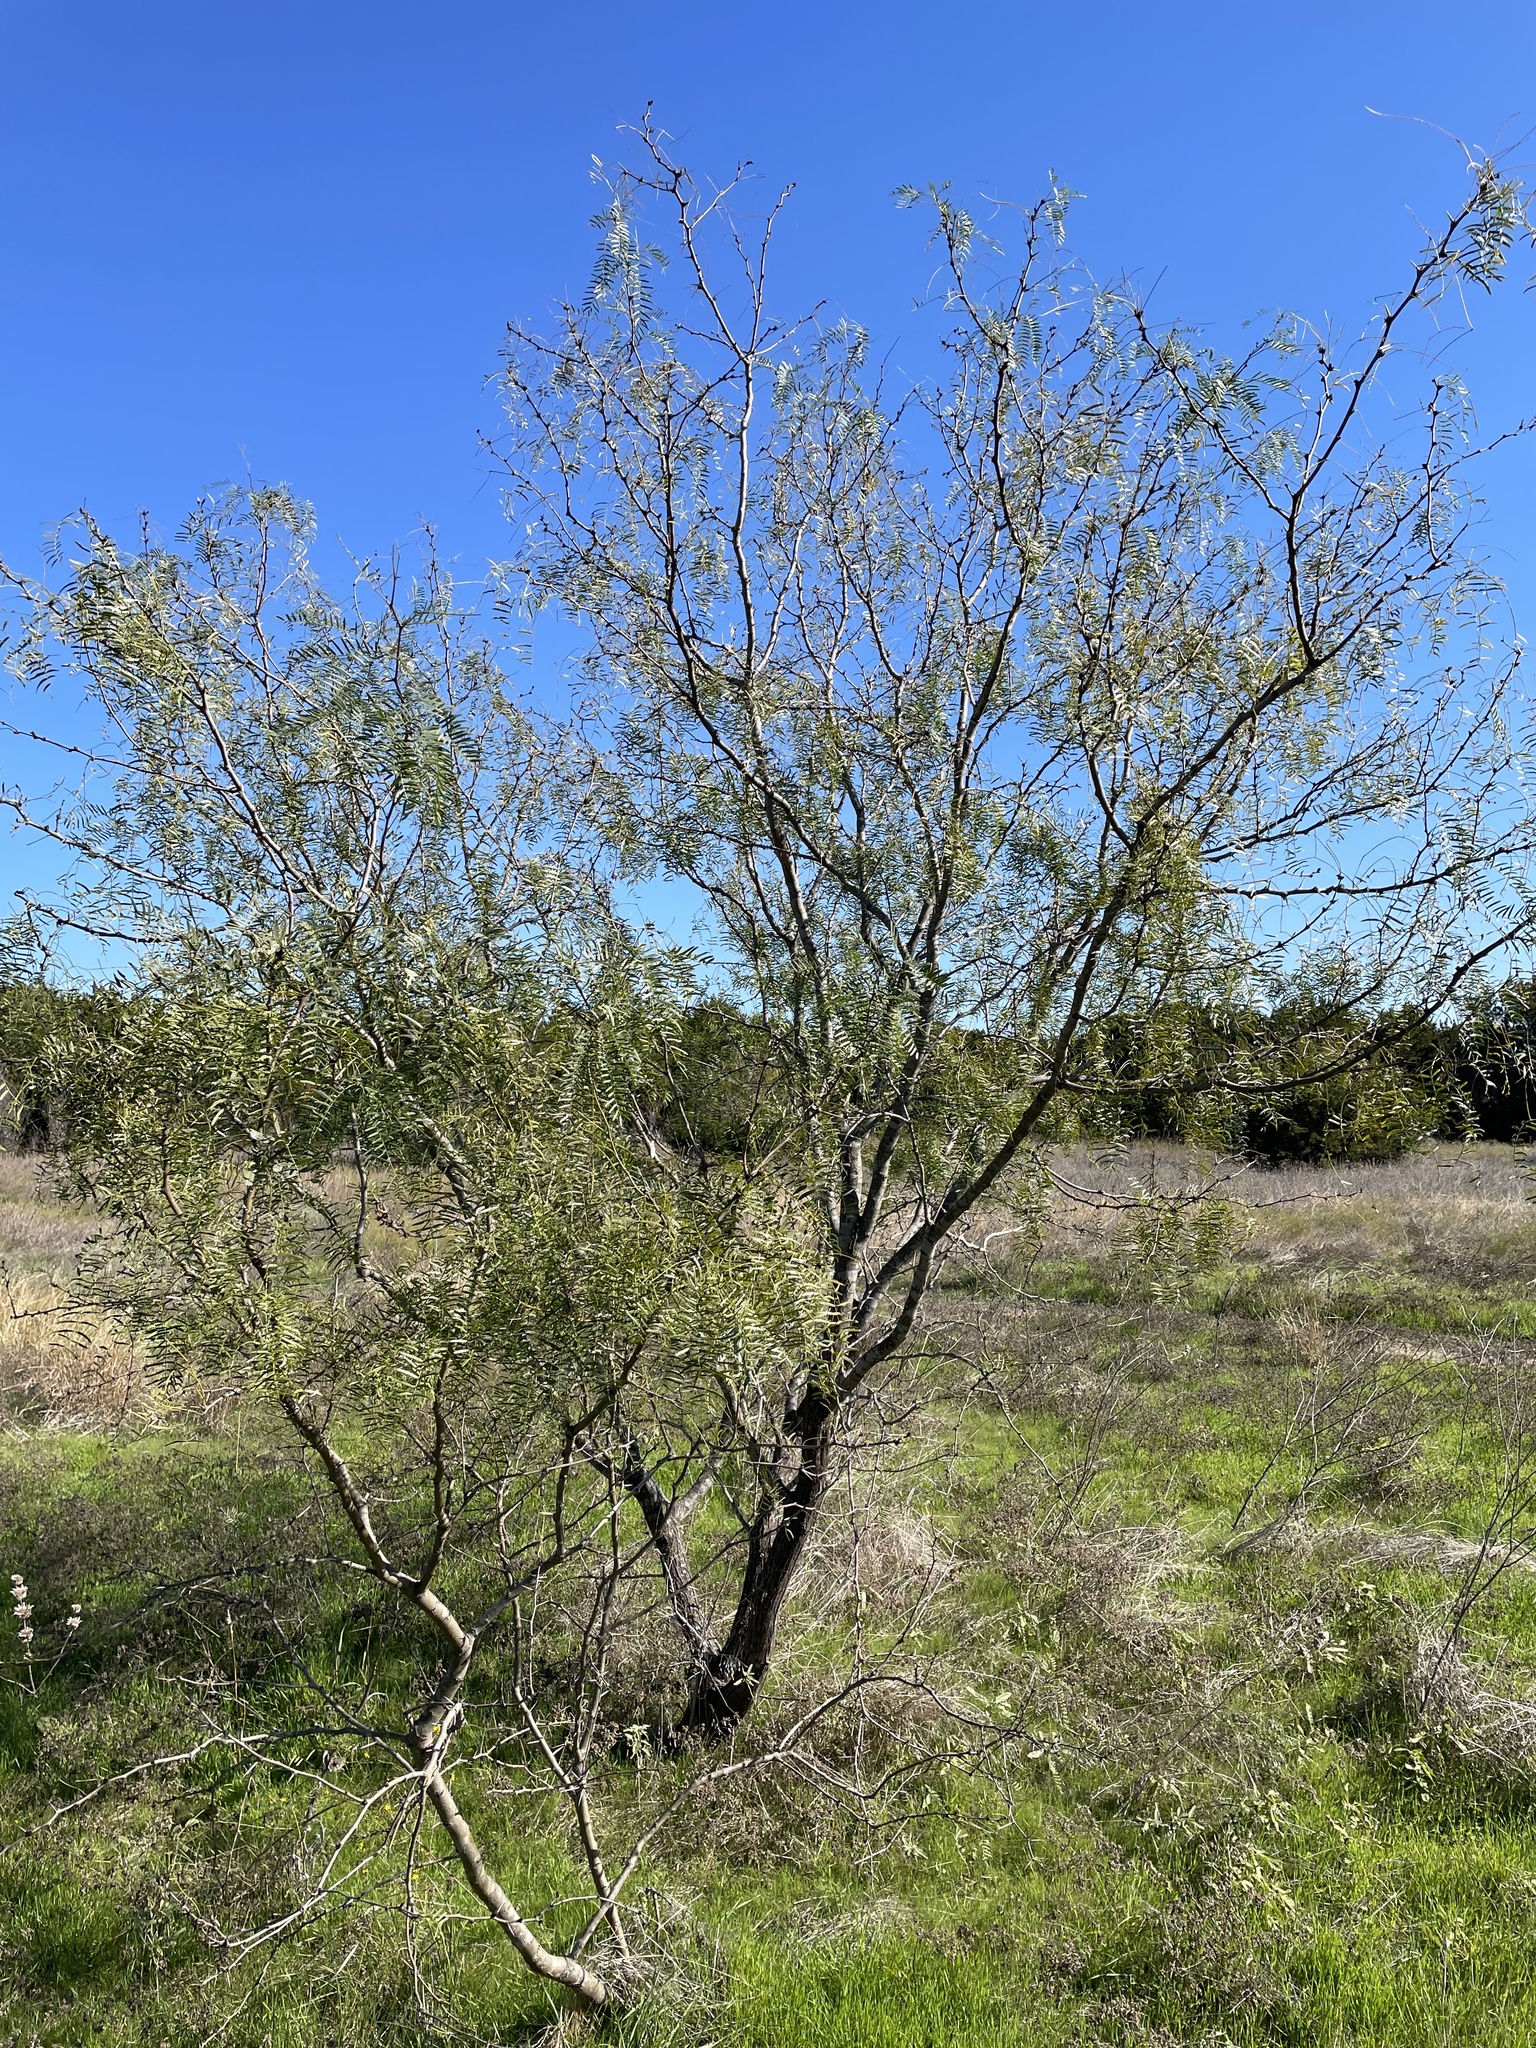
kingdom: Plantae
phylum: Tracheophyta
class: Magnoliopsida
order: Fabales
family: Fabaceae
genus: Prosopis
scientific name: Prosopis glandulosa
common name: Honey mesquite
